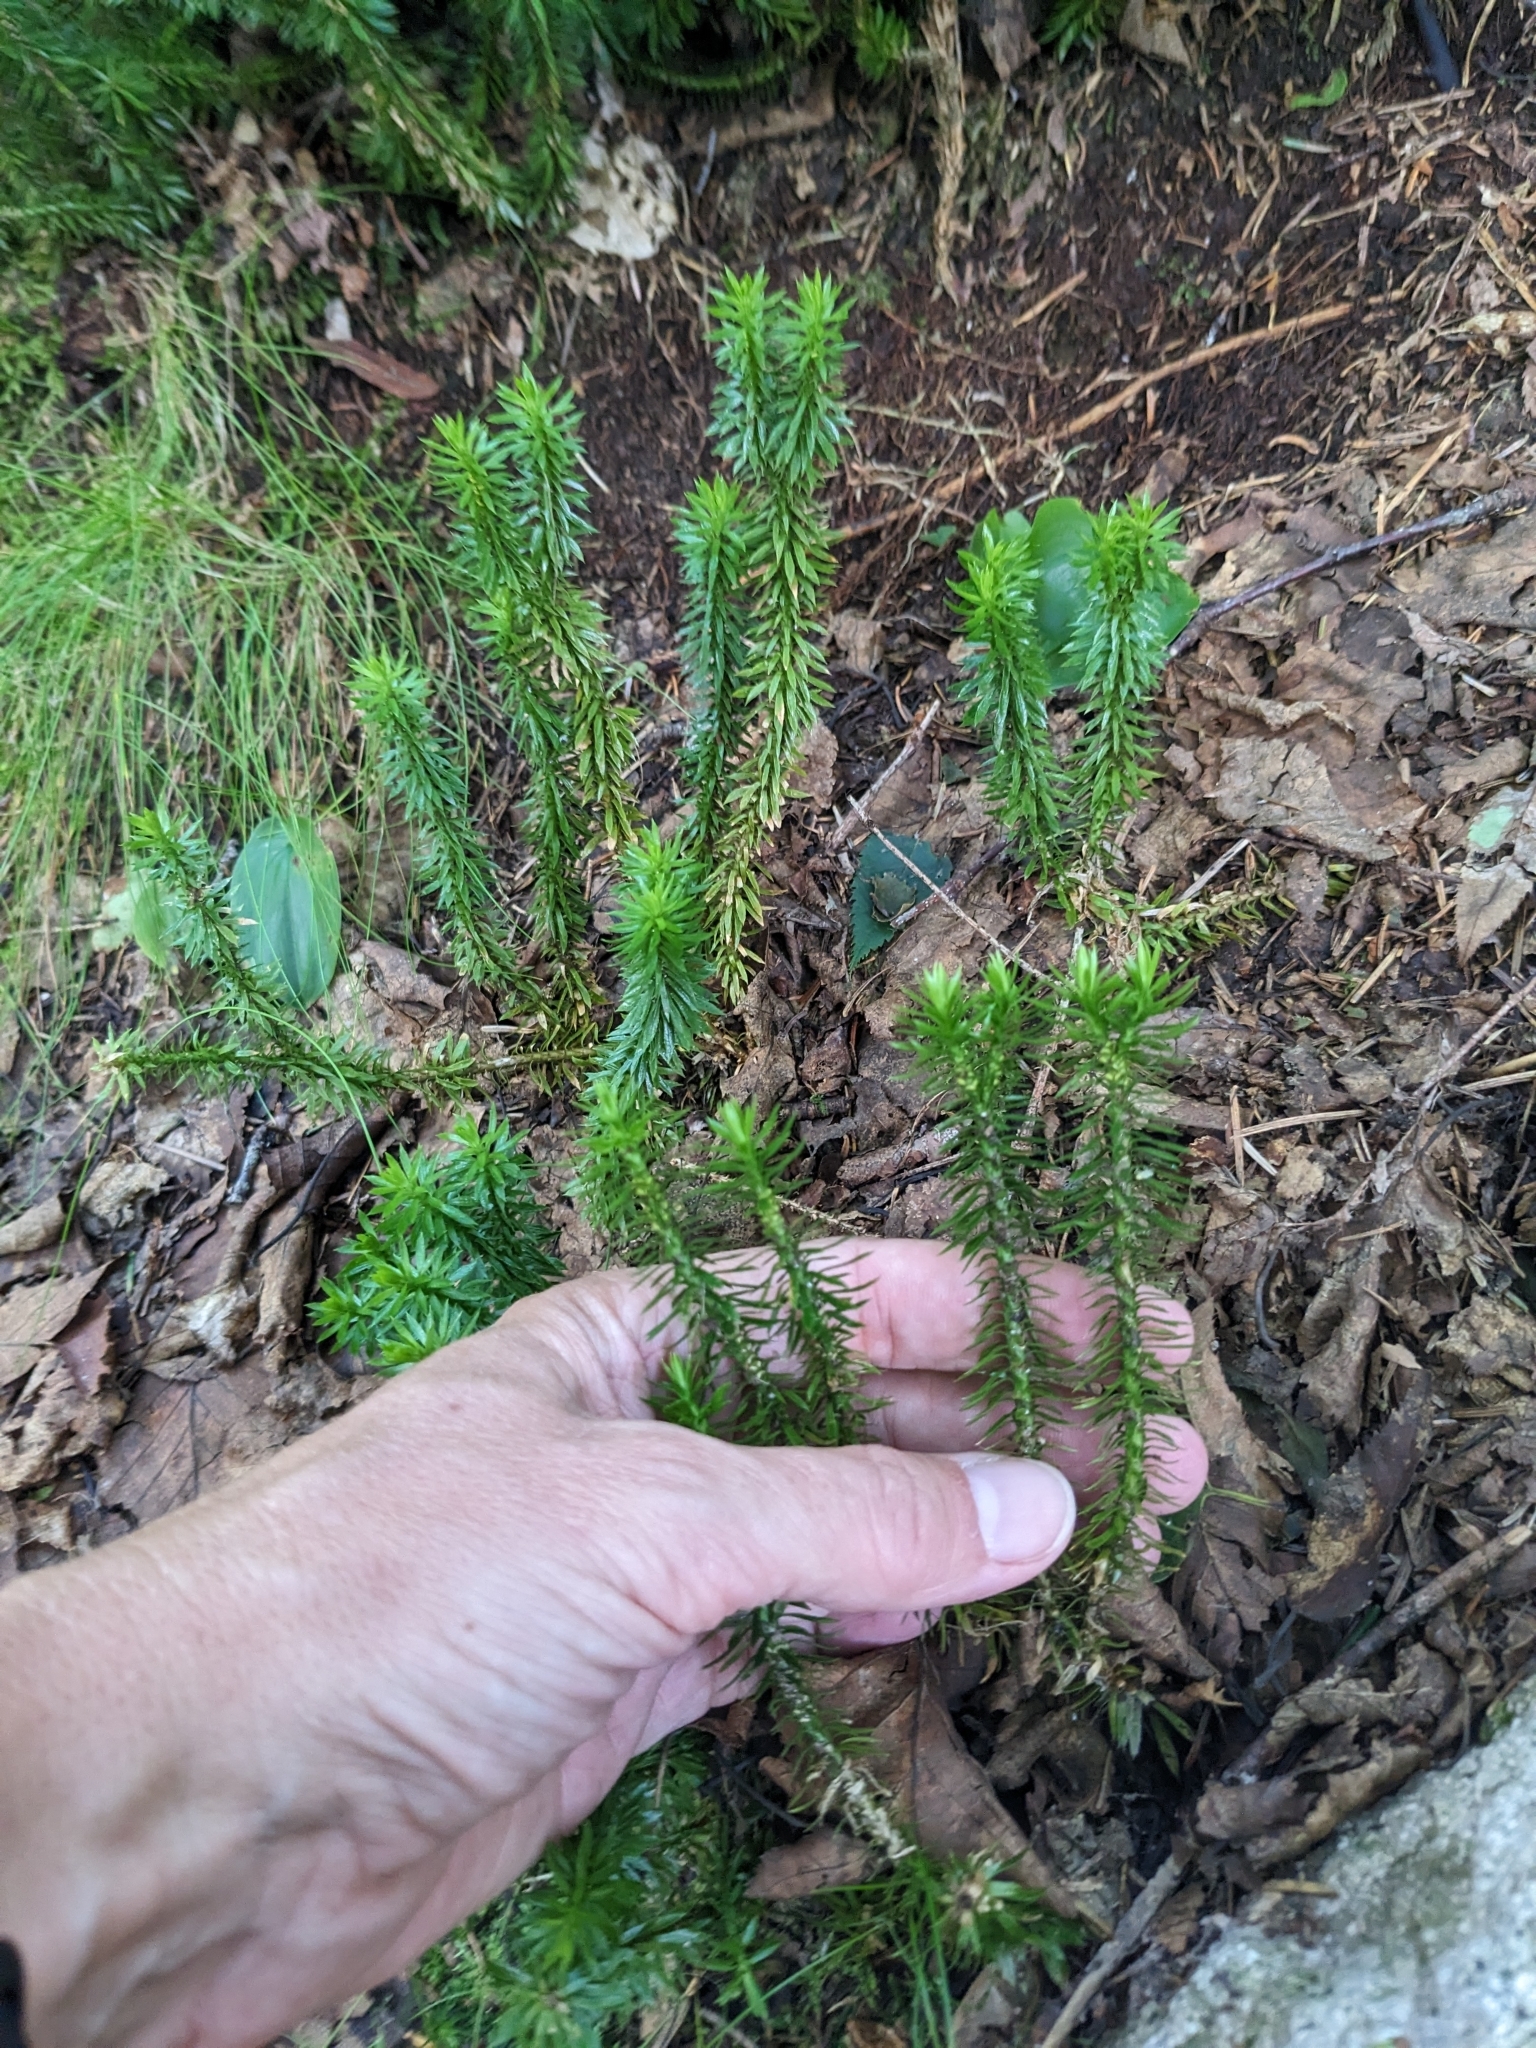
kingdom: Plantae
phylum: Tracheophyta
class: Lycopodiopsida
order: Lycopodiales
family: Lycopodiaceae
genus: Huperzia
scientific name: Huperzia lucidula
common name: Shining clubmoss
